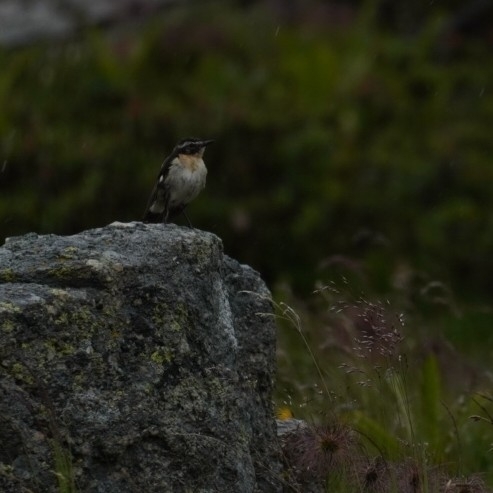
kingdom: Animalia
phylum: Chordata
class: Aves
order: Passeriformes
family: Muscicapidae
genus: Saxicola
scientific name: Saxicola rubetra
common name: Whinchat
